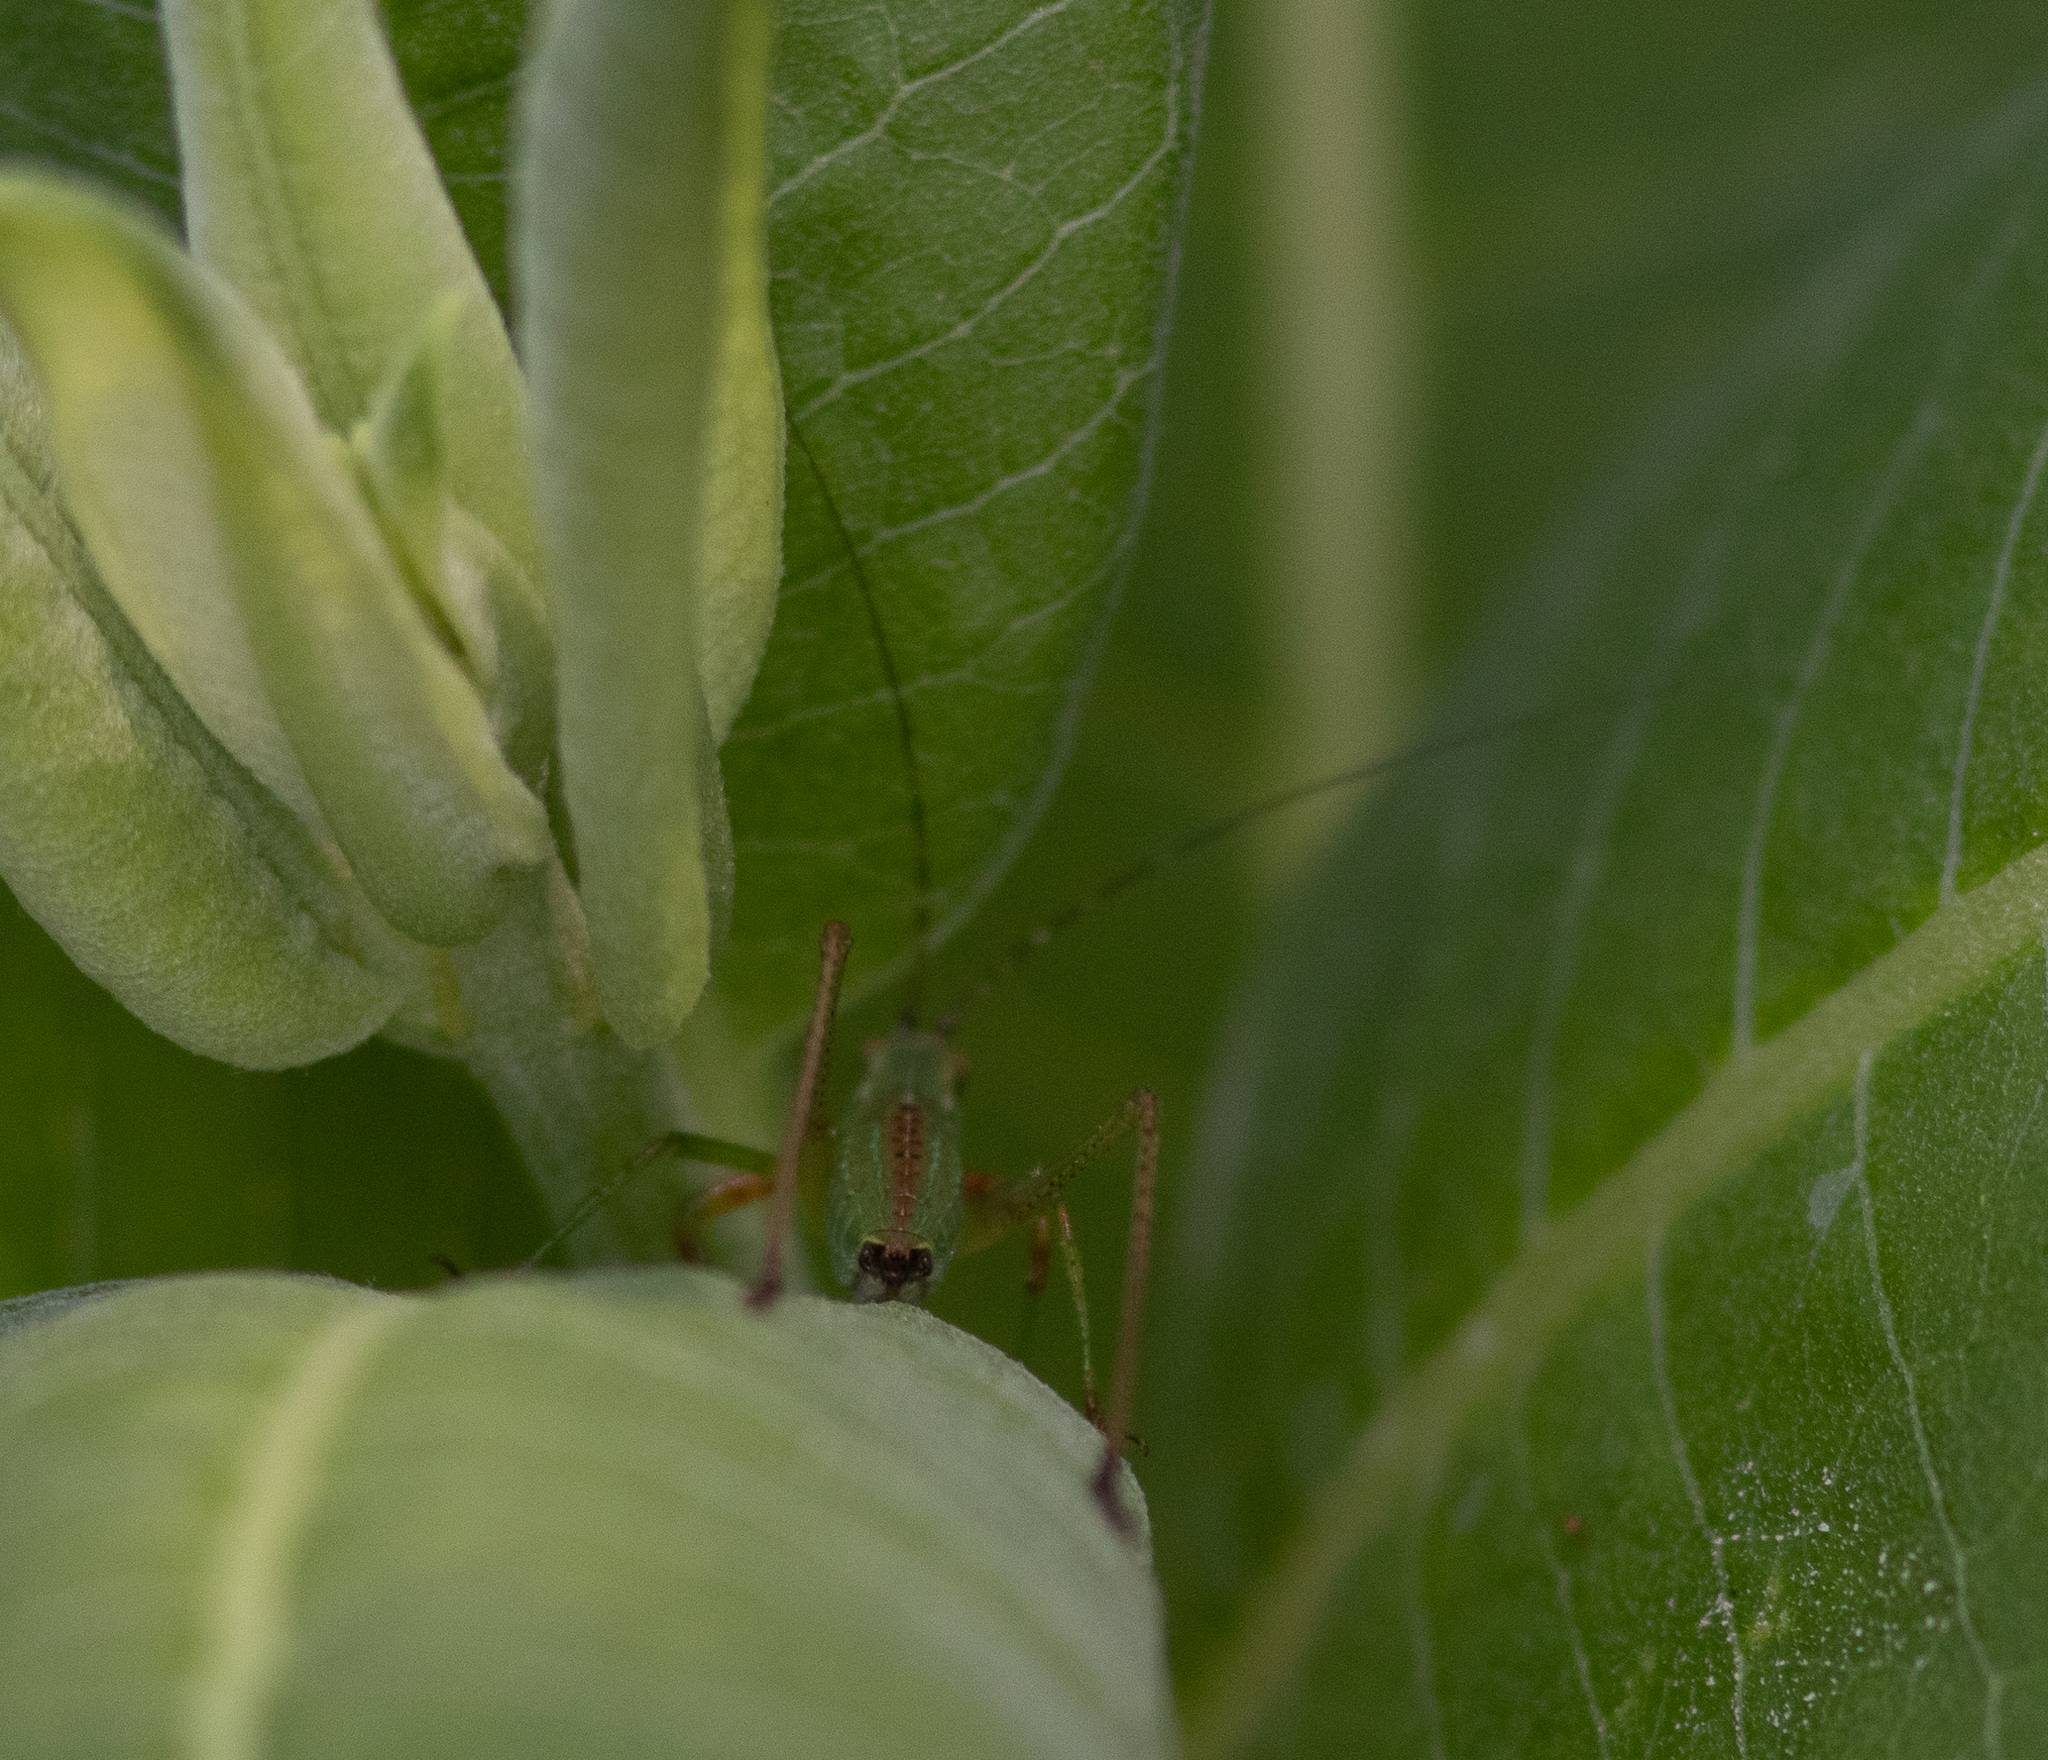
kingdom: Animalia
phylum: Arthropoda
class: Insecta
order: Orthoptera
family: Tettigoniidae
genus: Scudderia
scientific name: Scudderia
